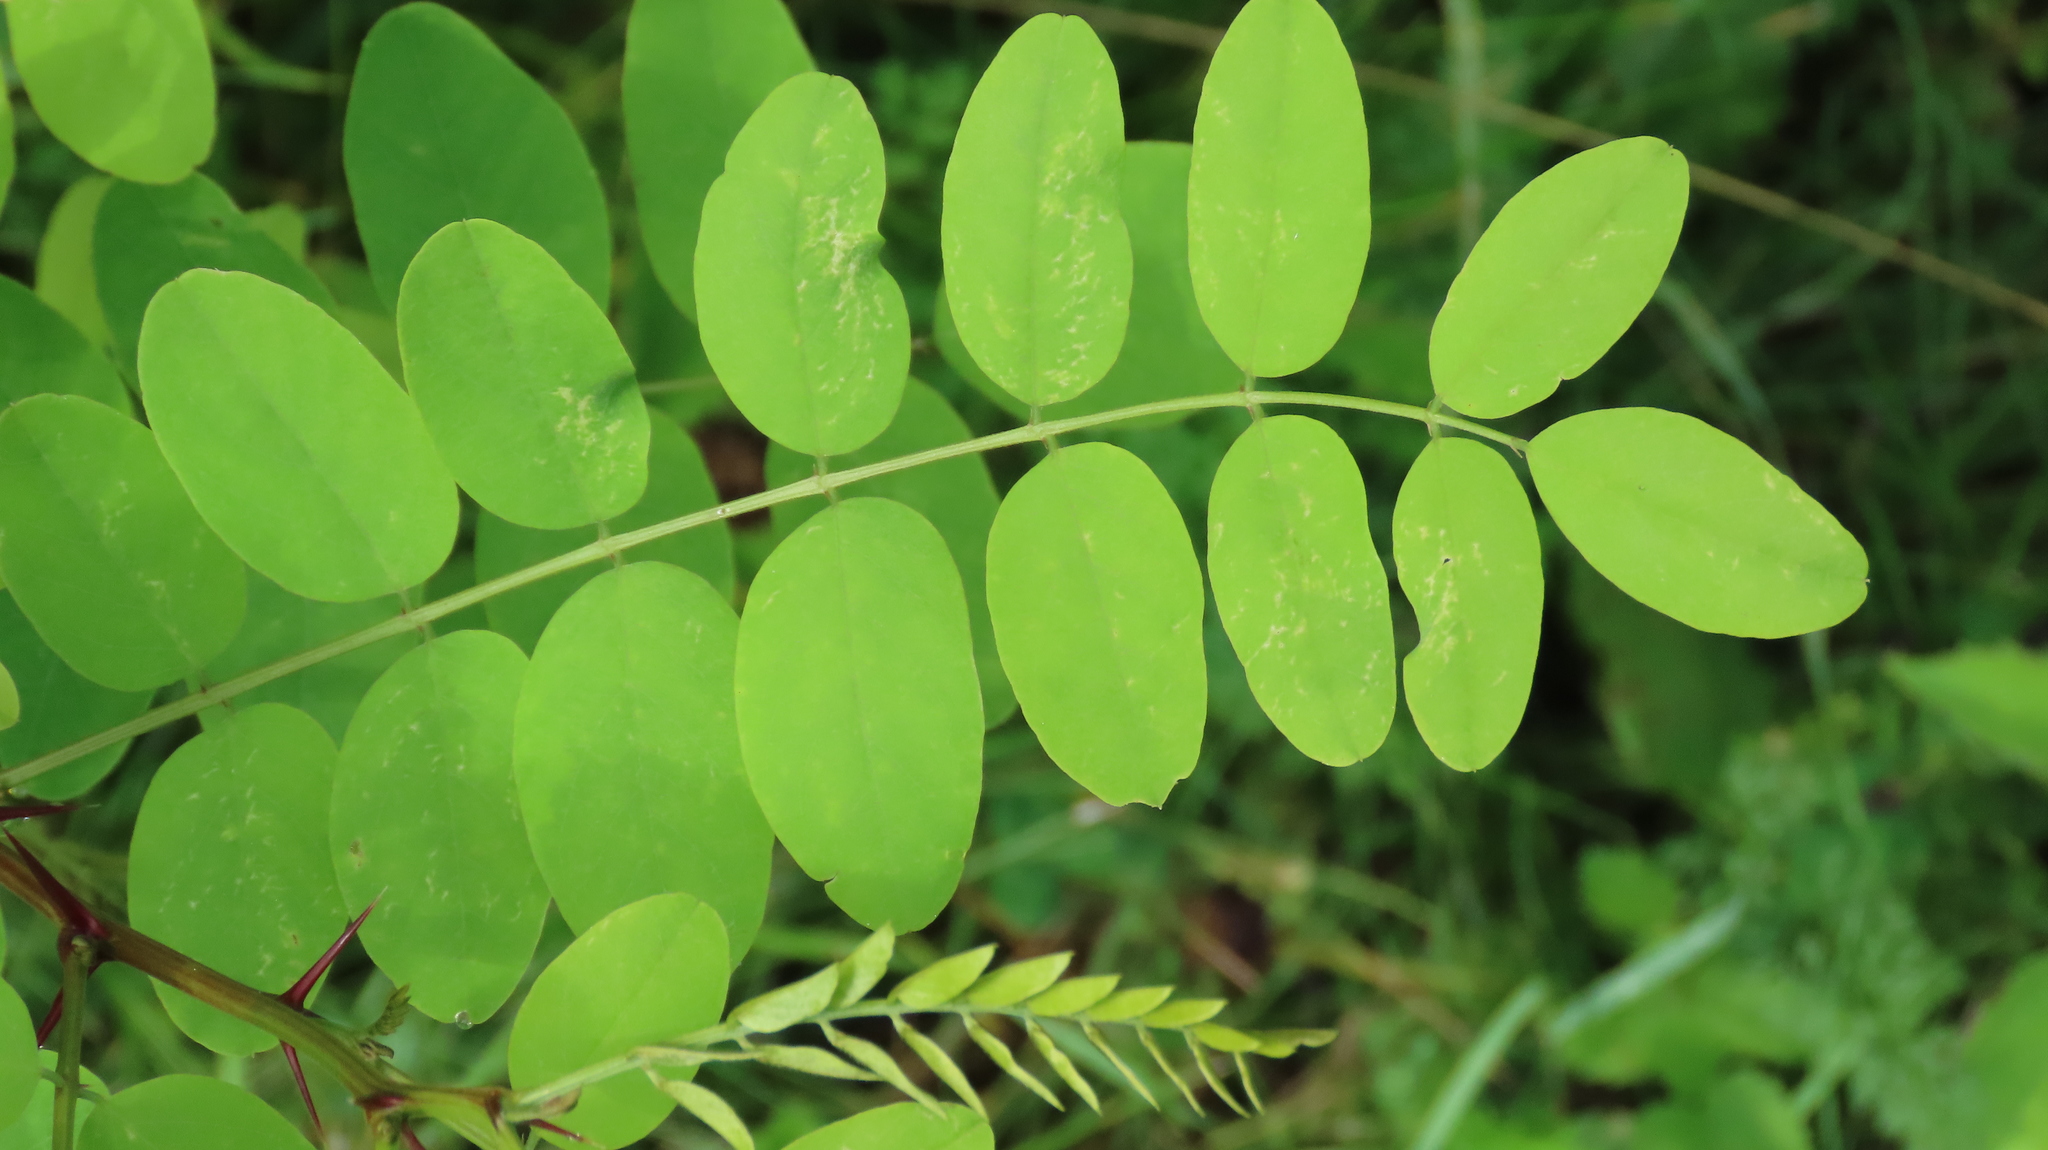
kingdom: Plantae
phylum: Tracheophyta
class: Magnoliopsida
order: Fabales
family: Fabaceae
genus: Robinia
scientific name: Robinia pseudoacacia
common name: Black locust
